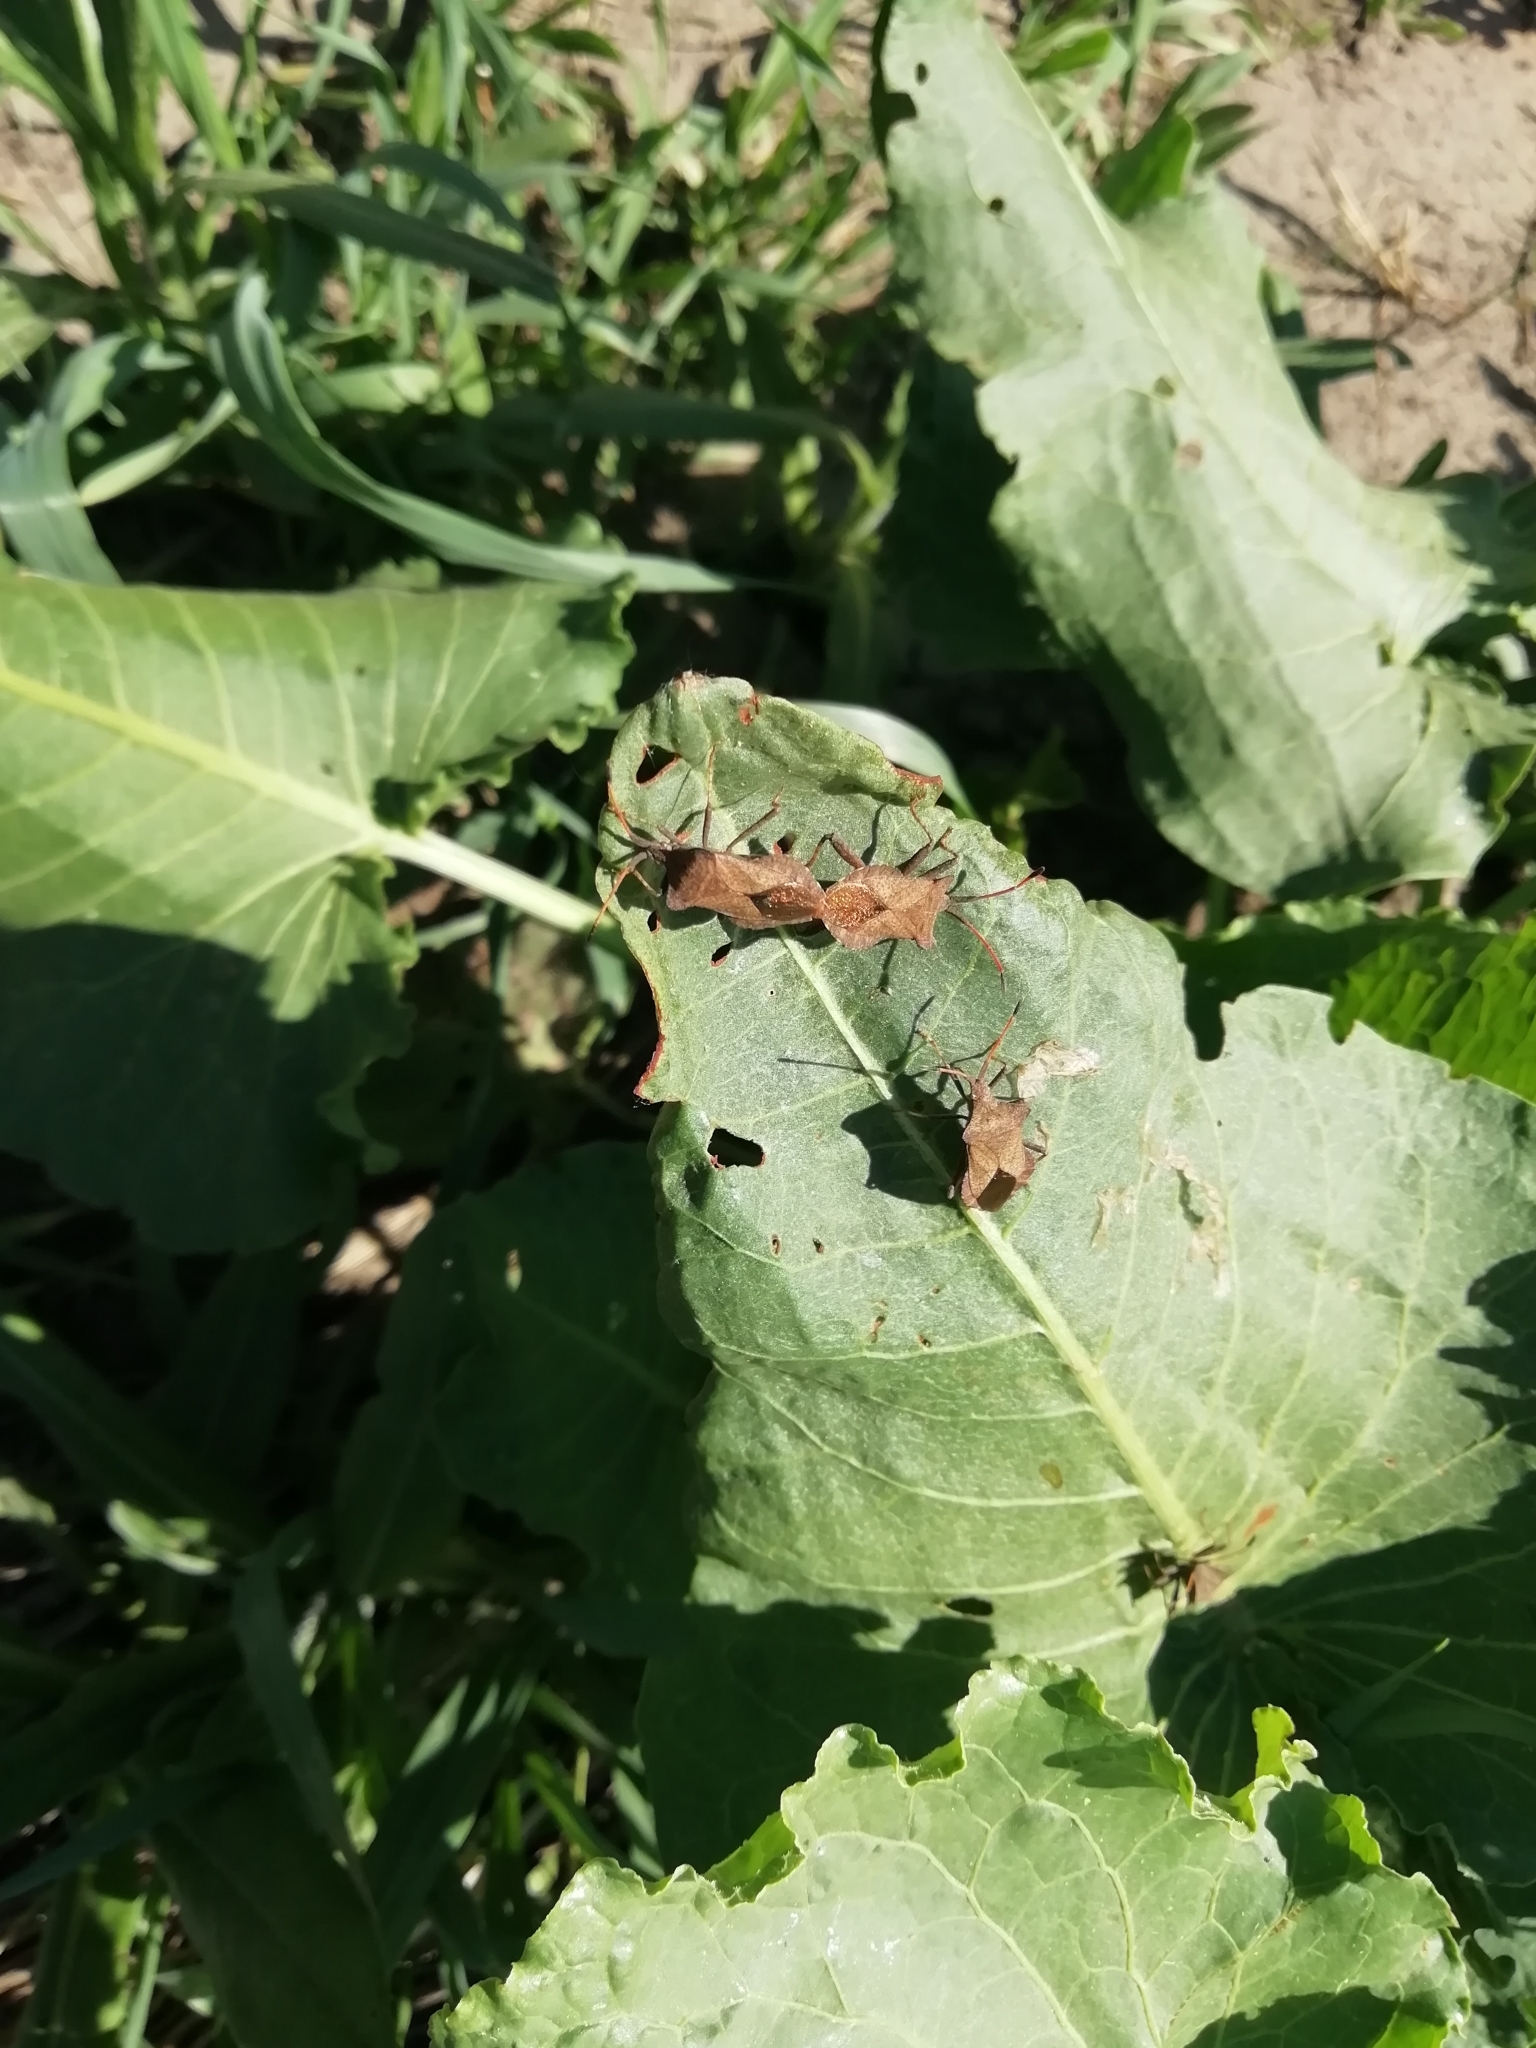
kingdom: Animalia
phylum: Arthropoda
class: Insecta
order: Hemiptera
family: Coreidae
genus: Coreus
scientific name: Coreus marginatus
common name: Dock bug
